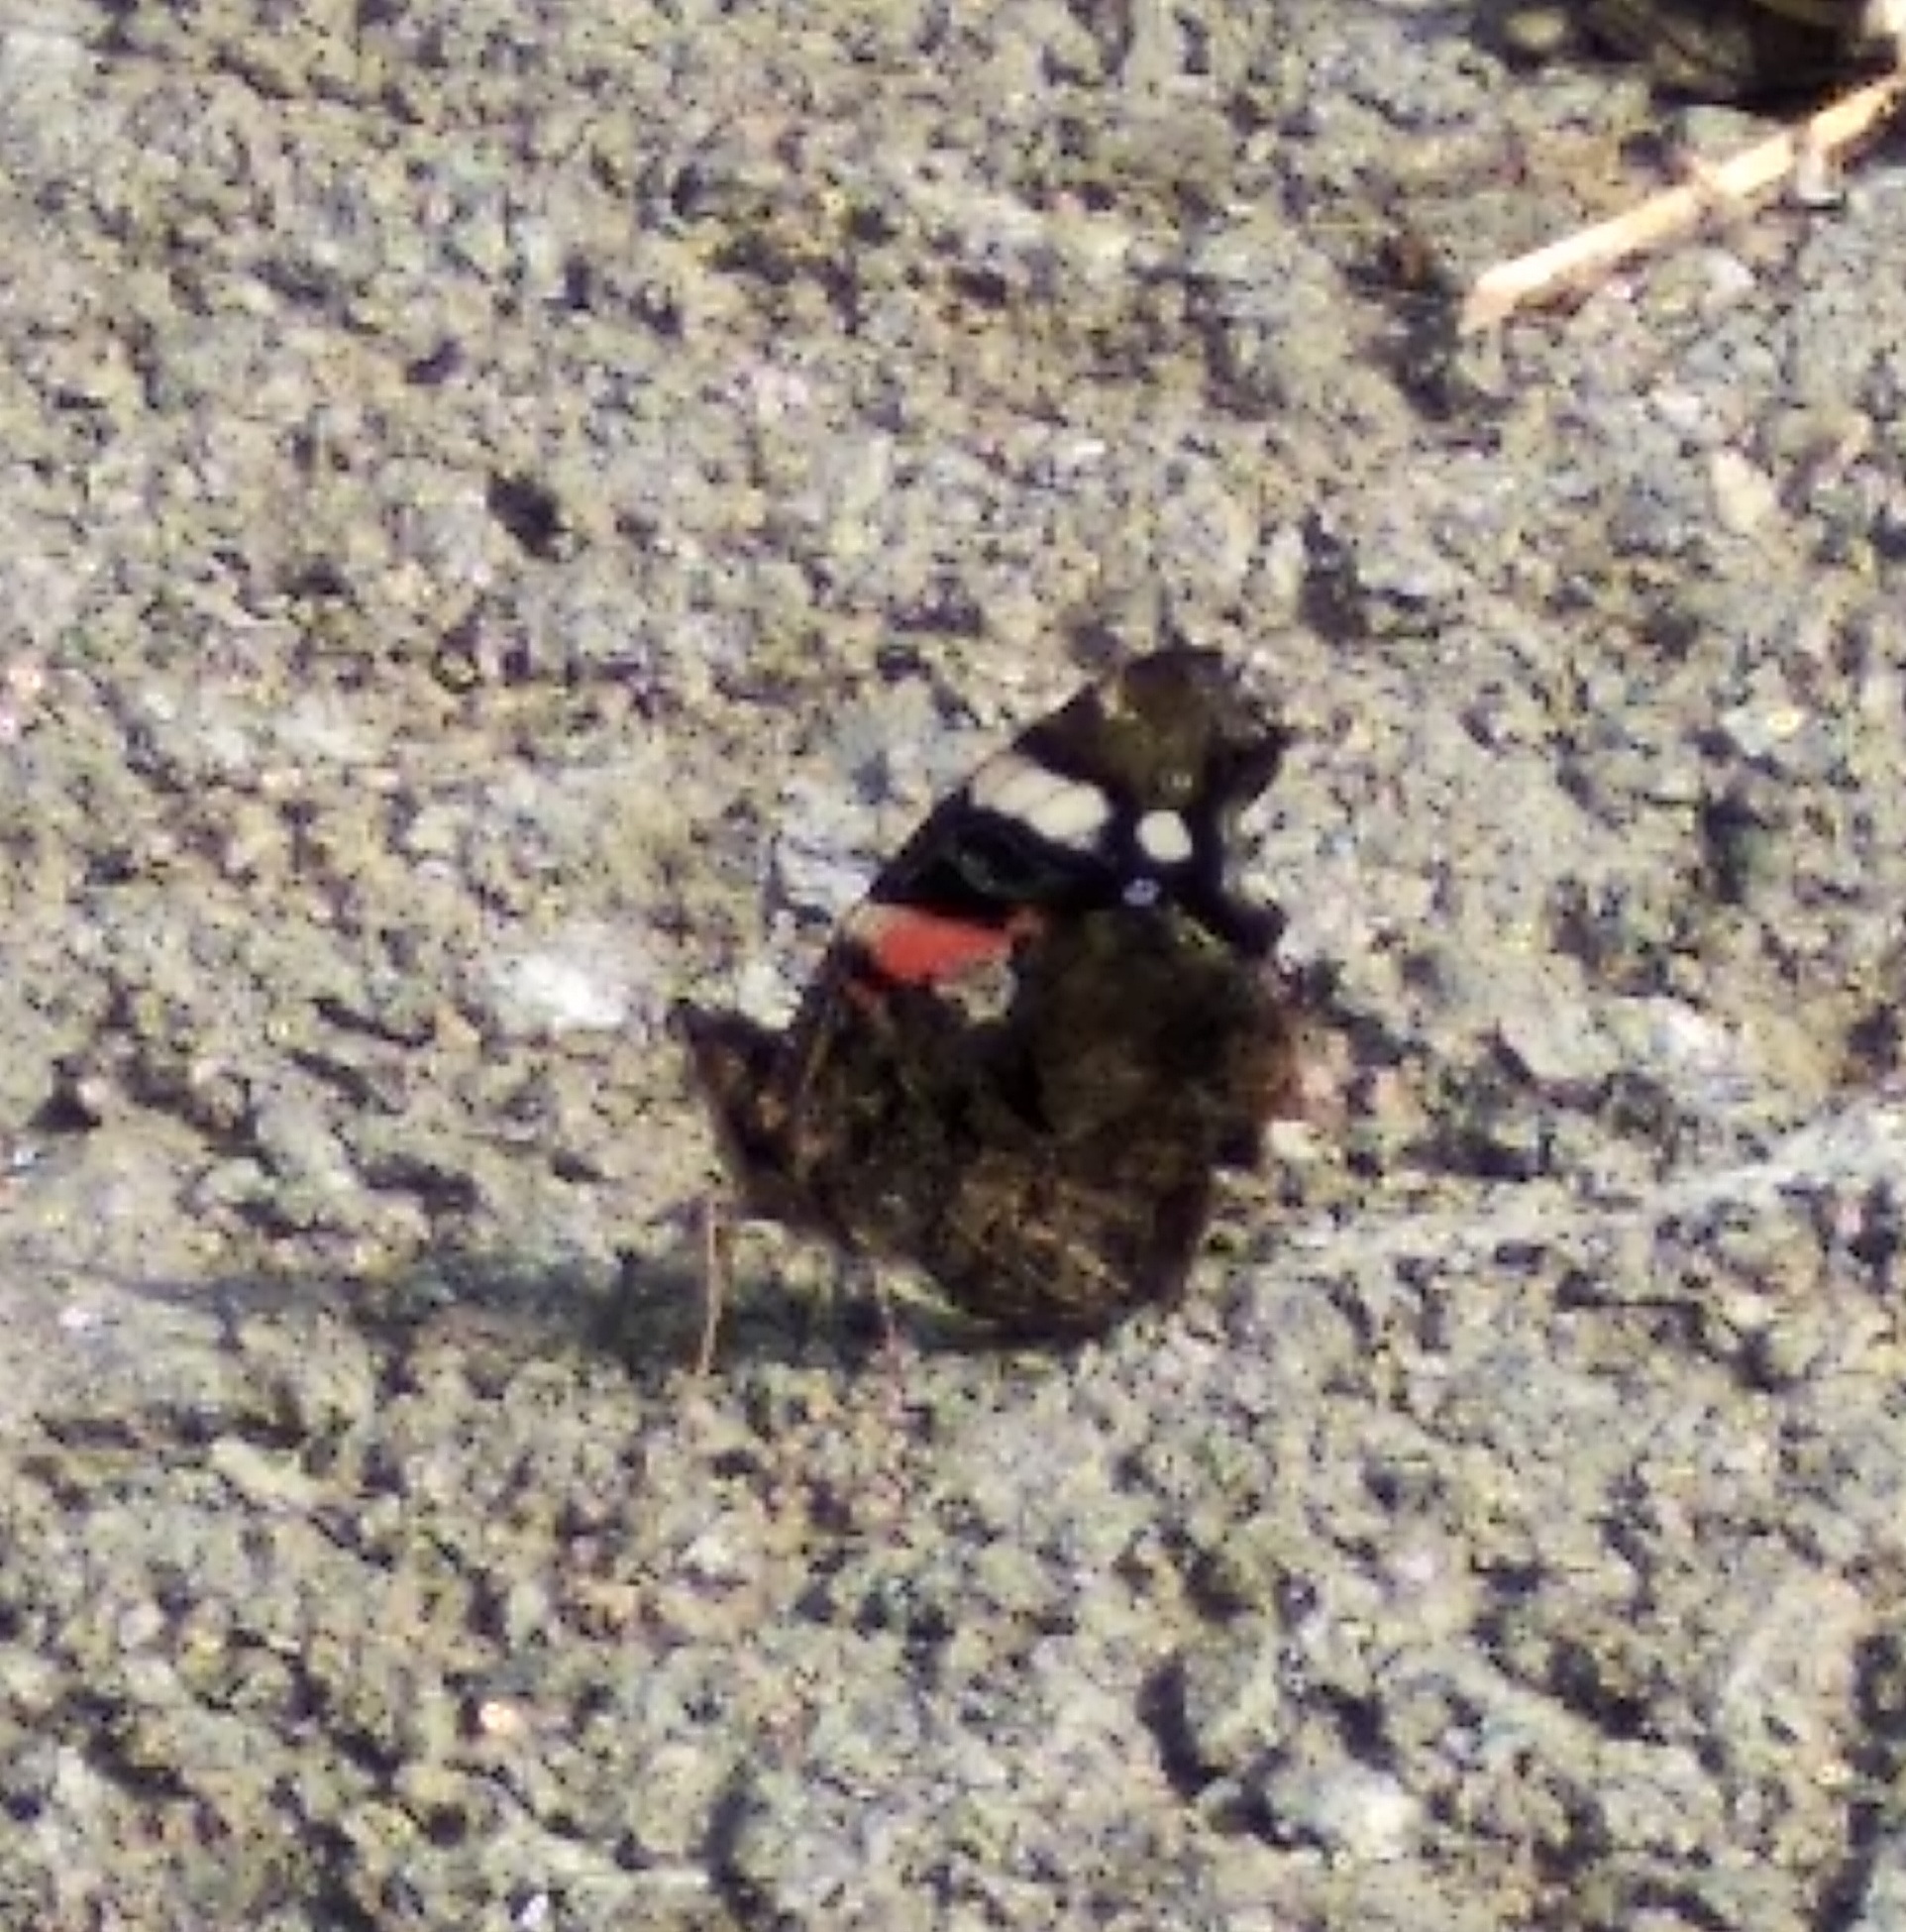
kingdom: Animalia
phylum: Arthropoda
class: Insecta
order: Lepidoptera
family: Nymphalidae
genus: Vanessa
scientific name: Vanessa atalanta
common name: Red admiral
